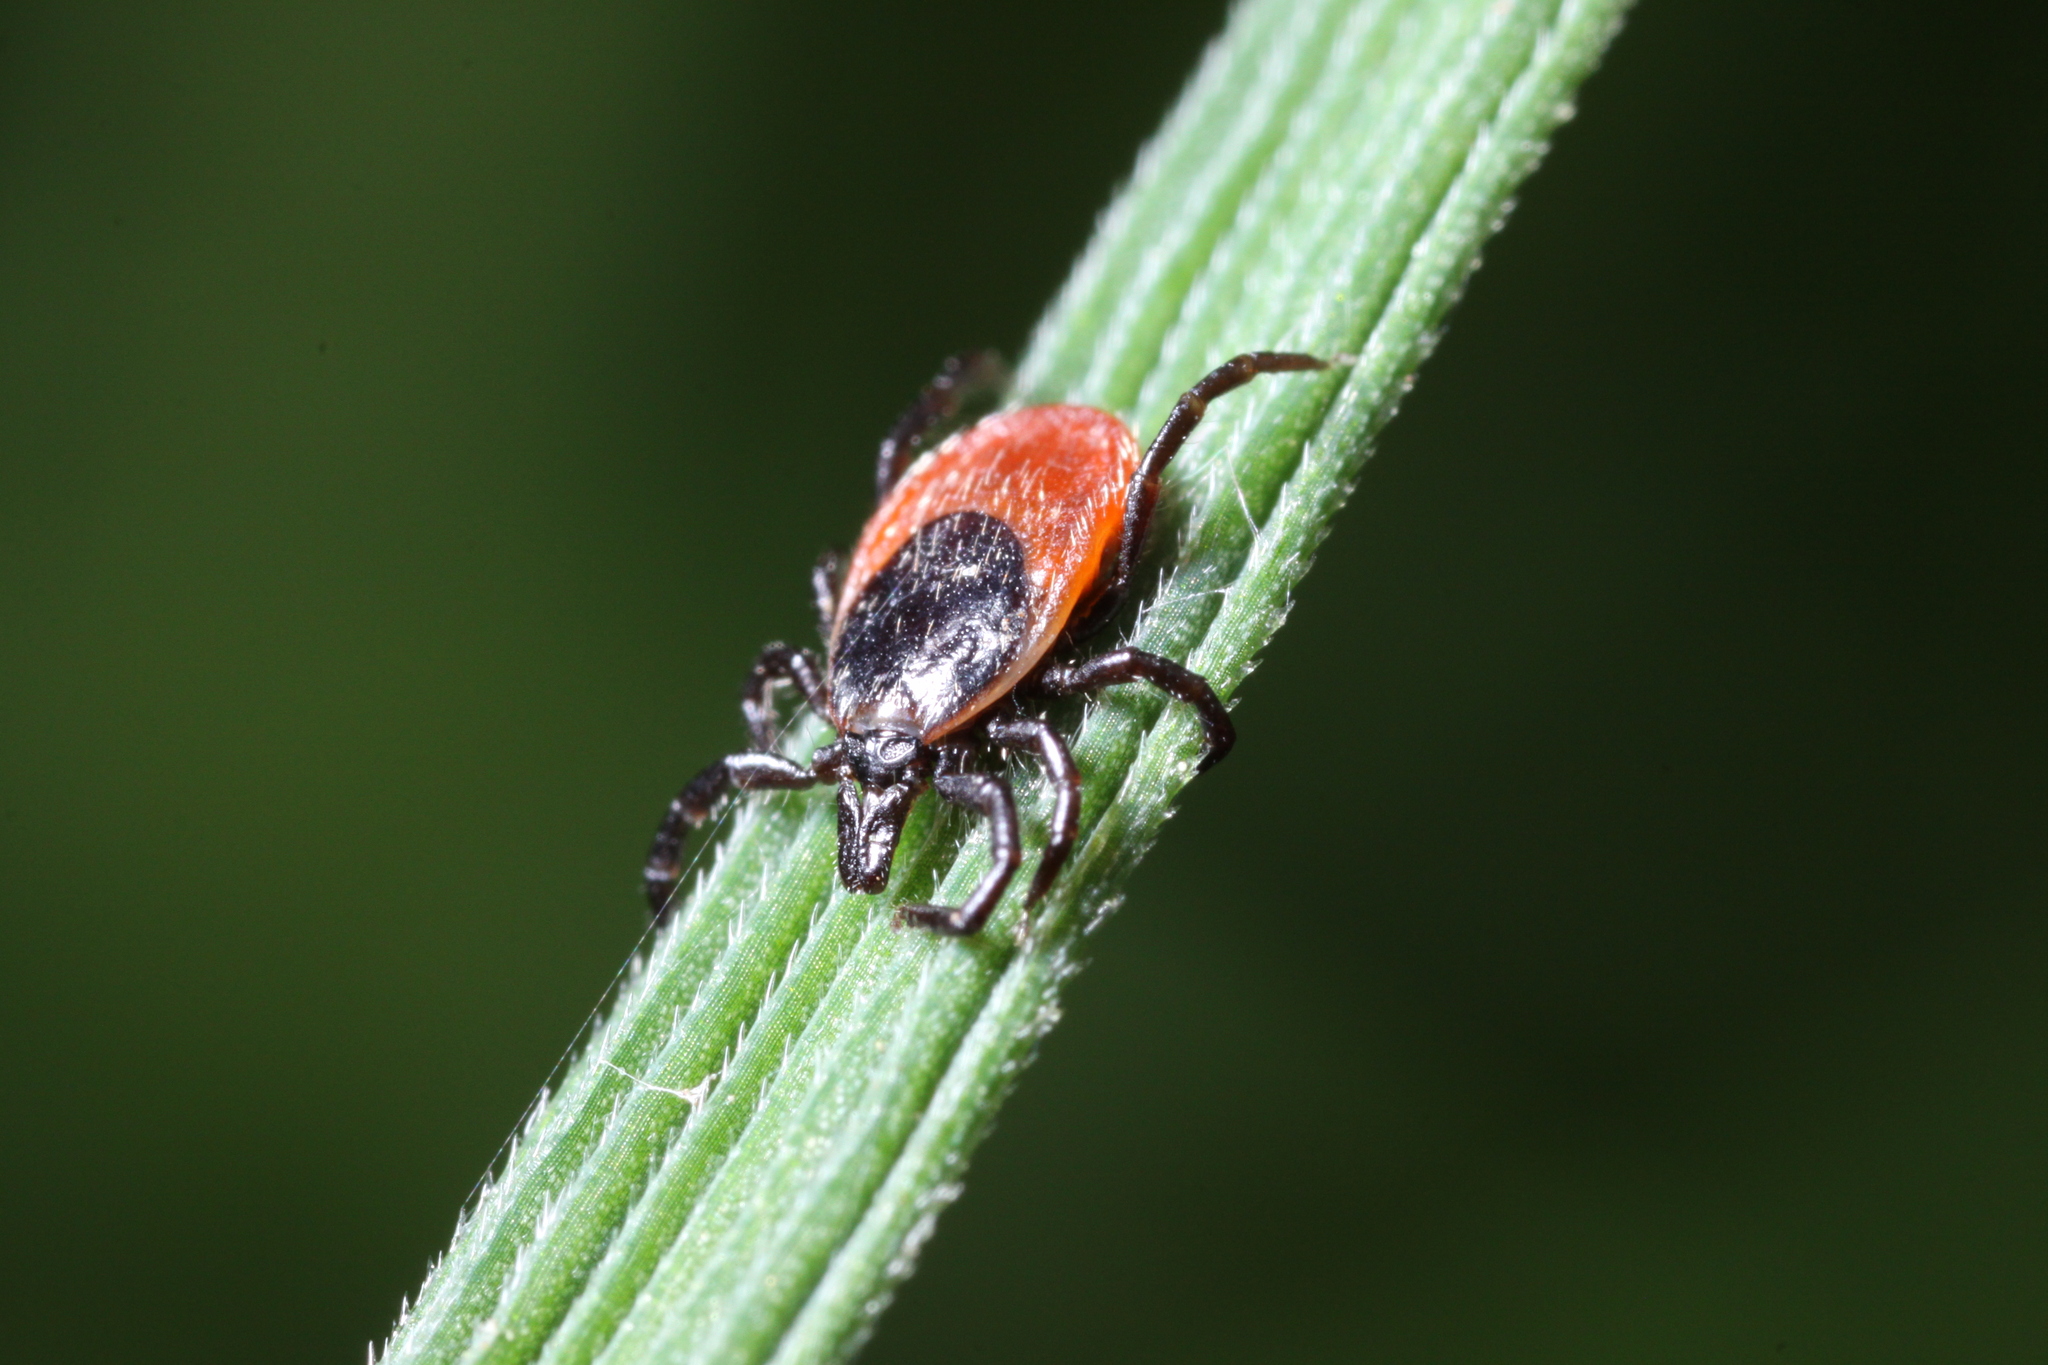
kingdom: Animalia
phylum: Arthropoda
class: Arachnida
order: Ixodida
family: Ixodidae
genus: Ixodes
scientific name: Ixodes ricinus
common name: Castor bean tick
